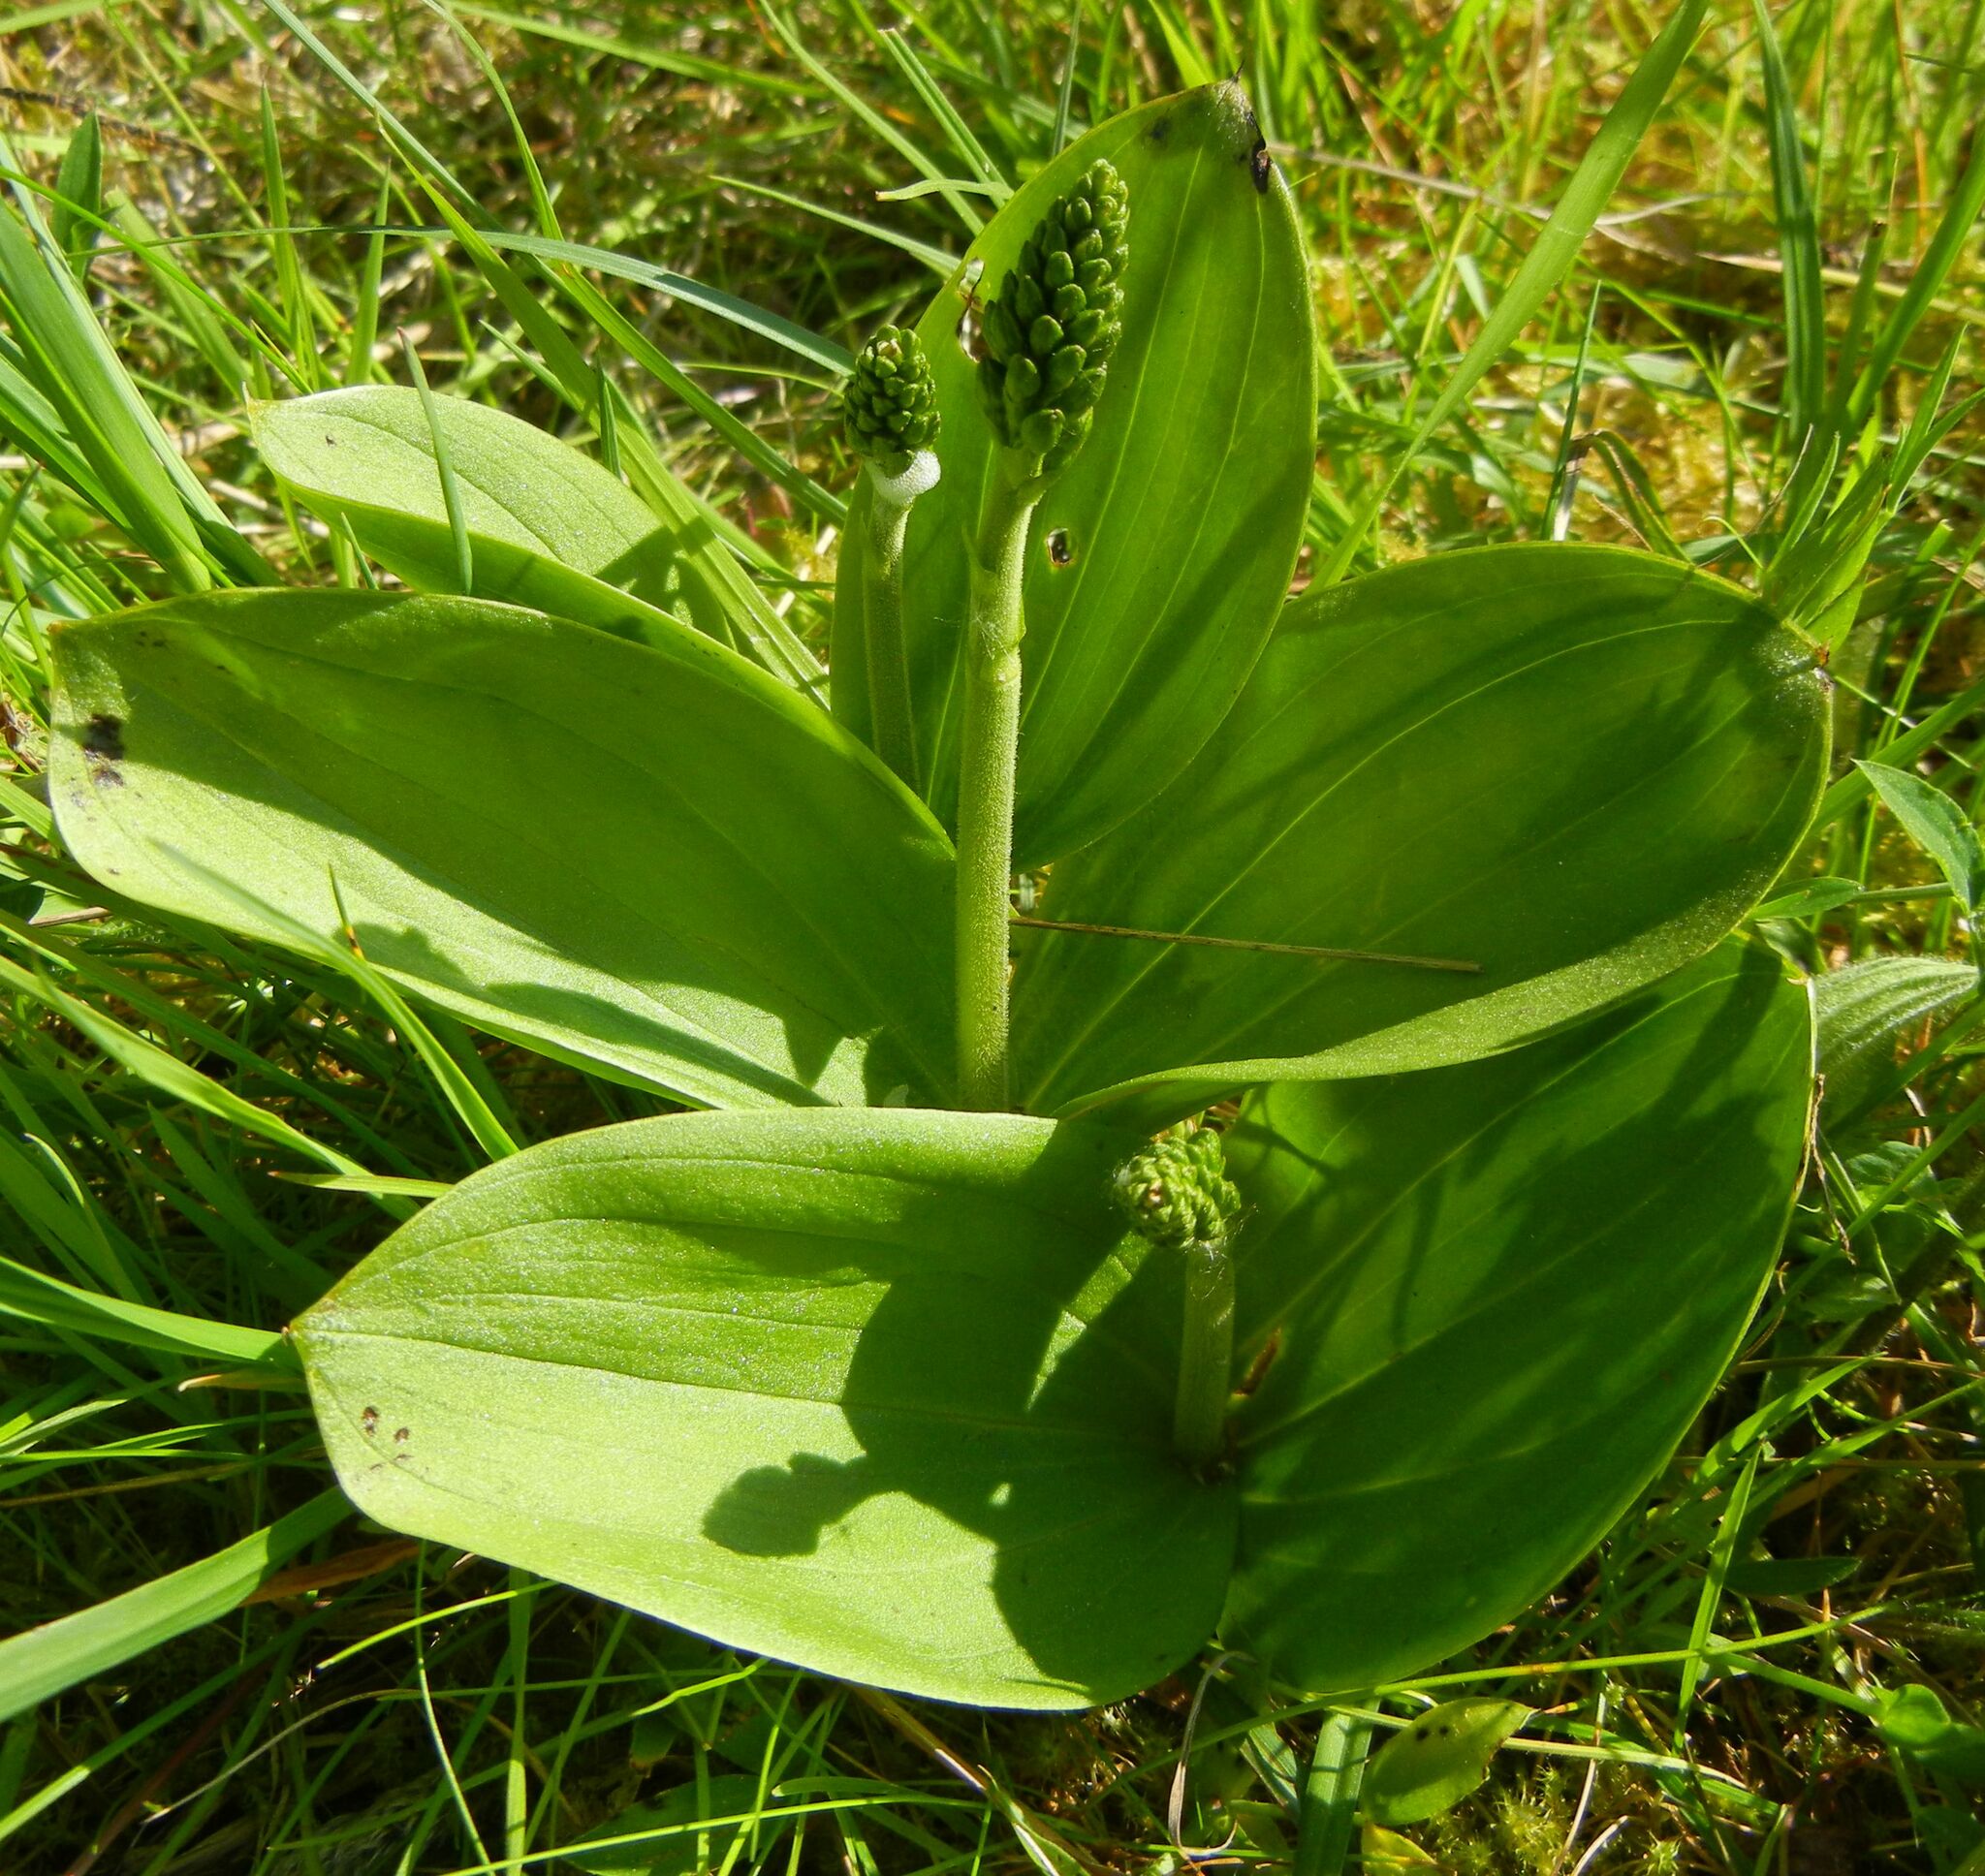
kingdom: Plantae
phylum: Tracheophyta
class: Liliopsida
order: Asparagales
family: Orchidaceae
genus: Neottia
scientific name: Neottia ovata
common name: Common twayblade
